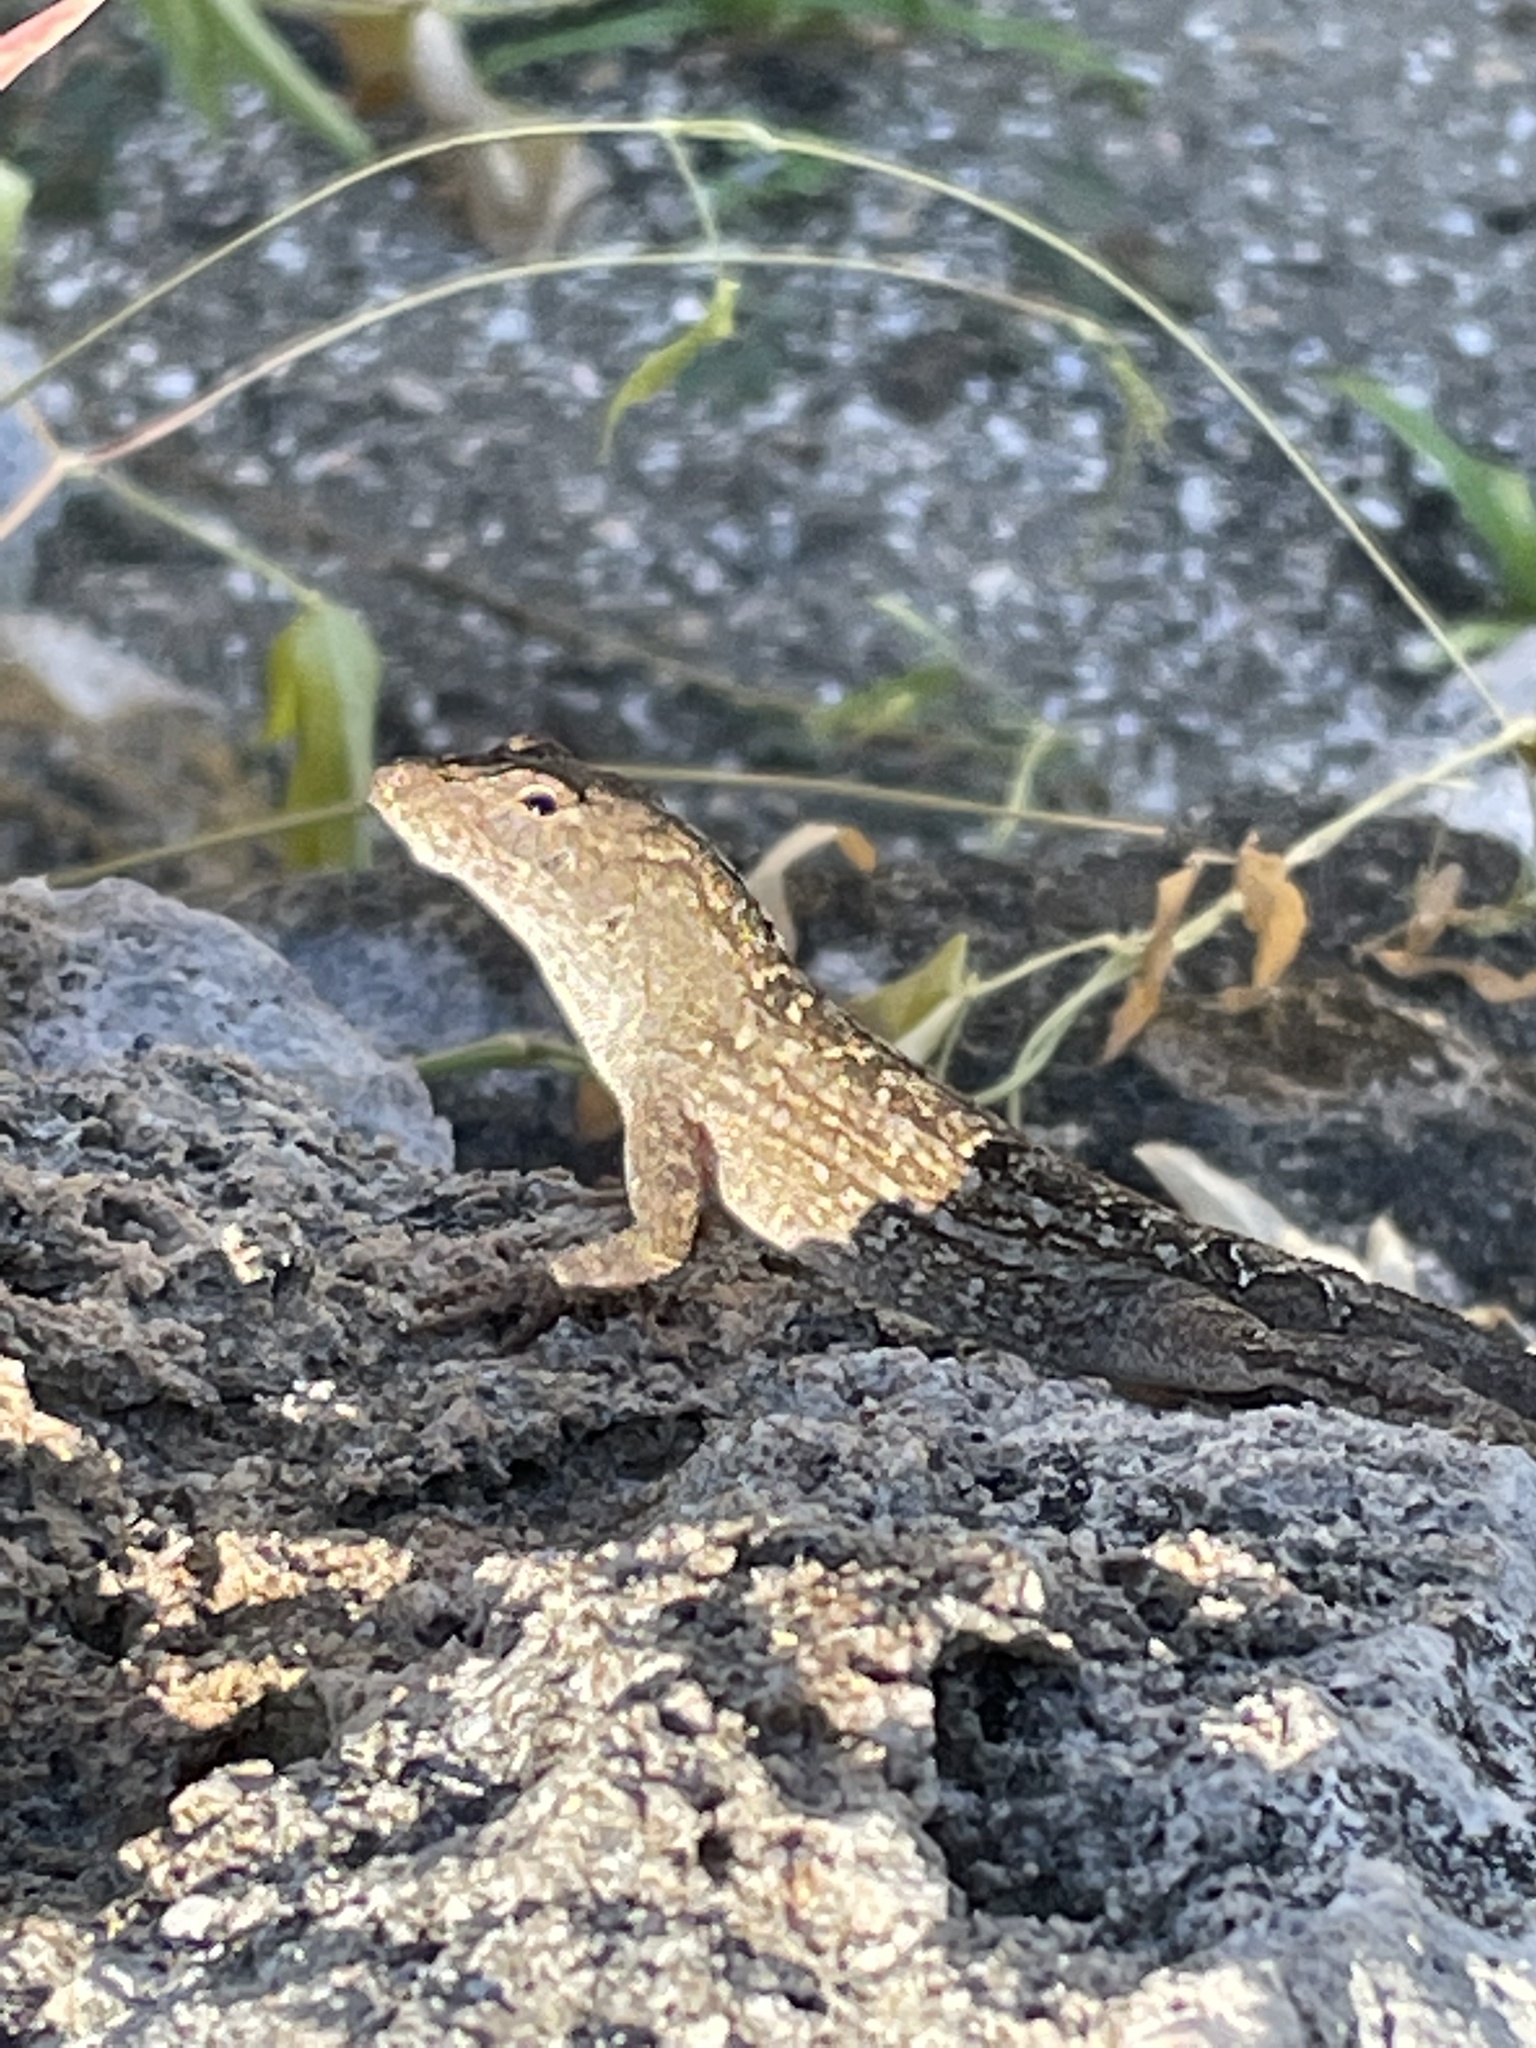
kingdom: Animalia
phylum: Chordata
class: Squamata
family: Dactyloidae
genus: Anolis
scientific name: Anolis sagrei
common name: Brown anole
